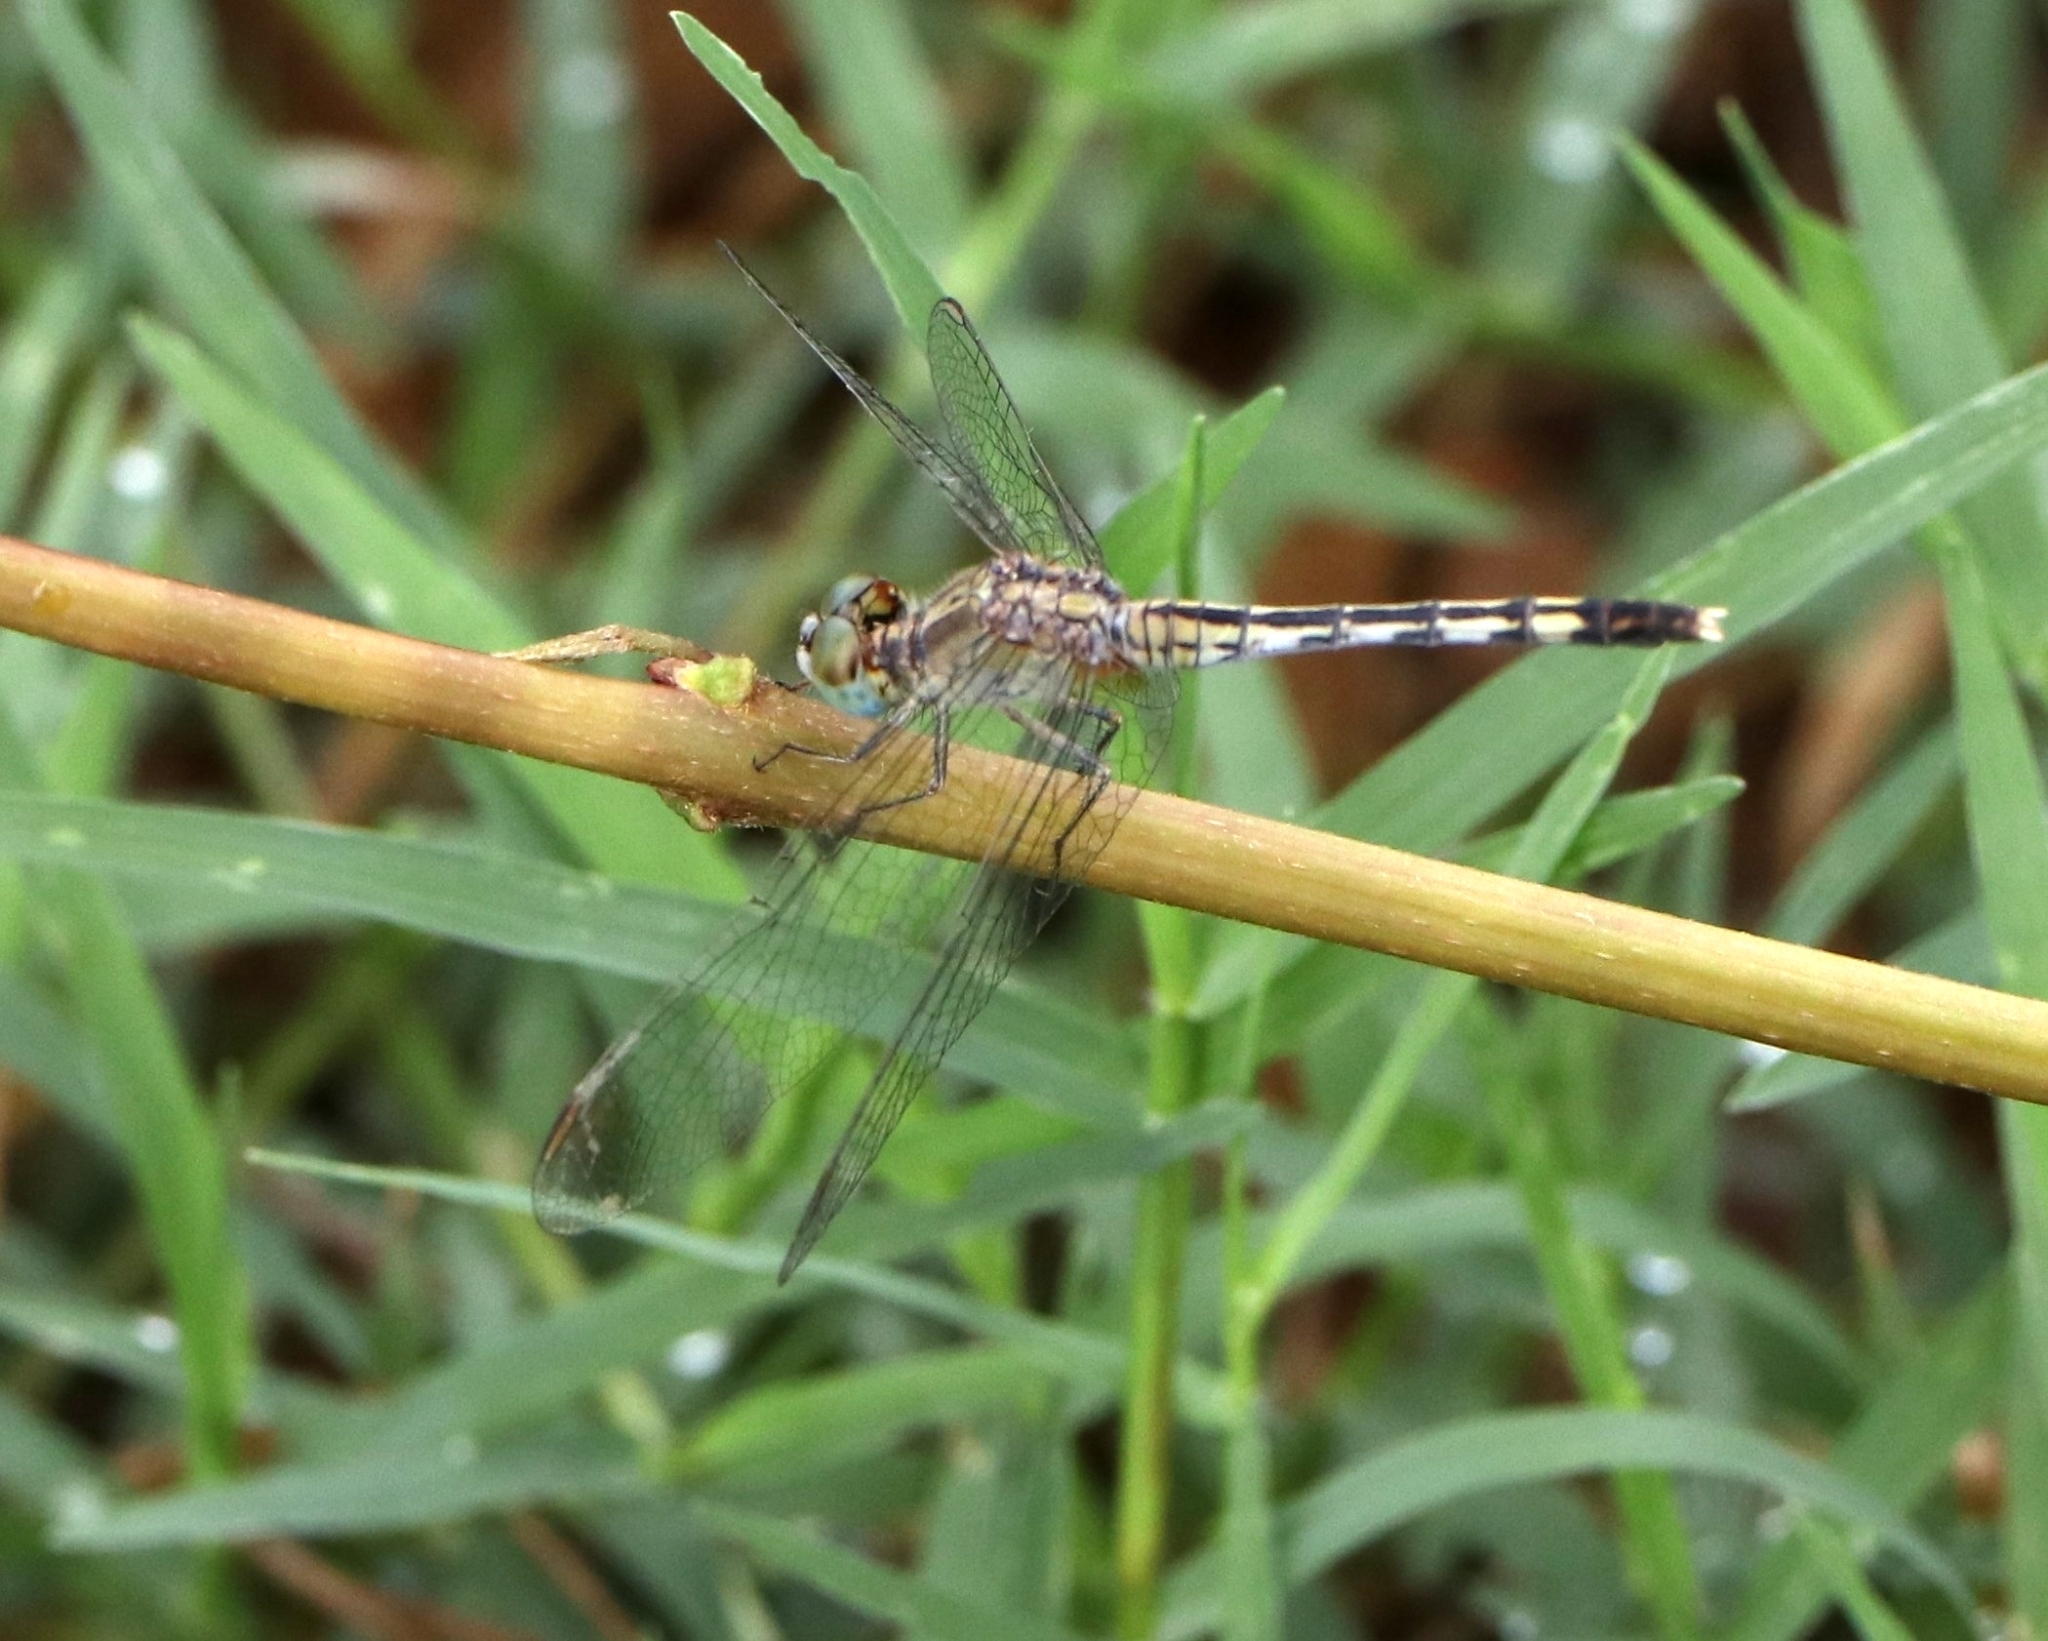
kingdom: Animalia
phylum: Arthropoda
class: Insecta
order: Odonata
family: Libellulidae
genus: Diplacodes
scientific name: Diplacodes trivialis
